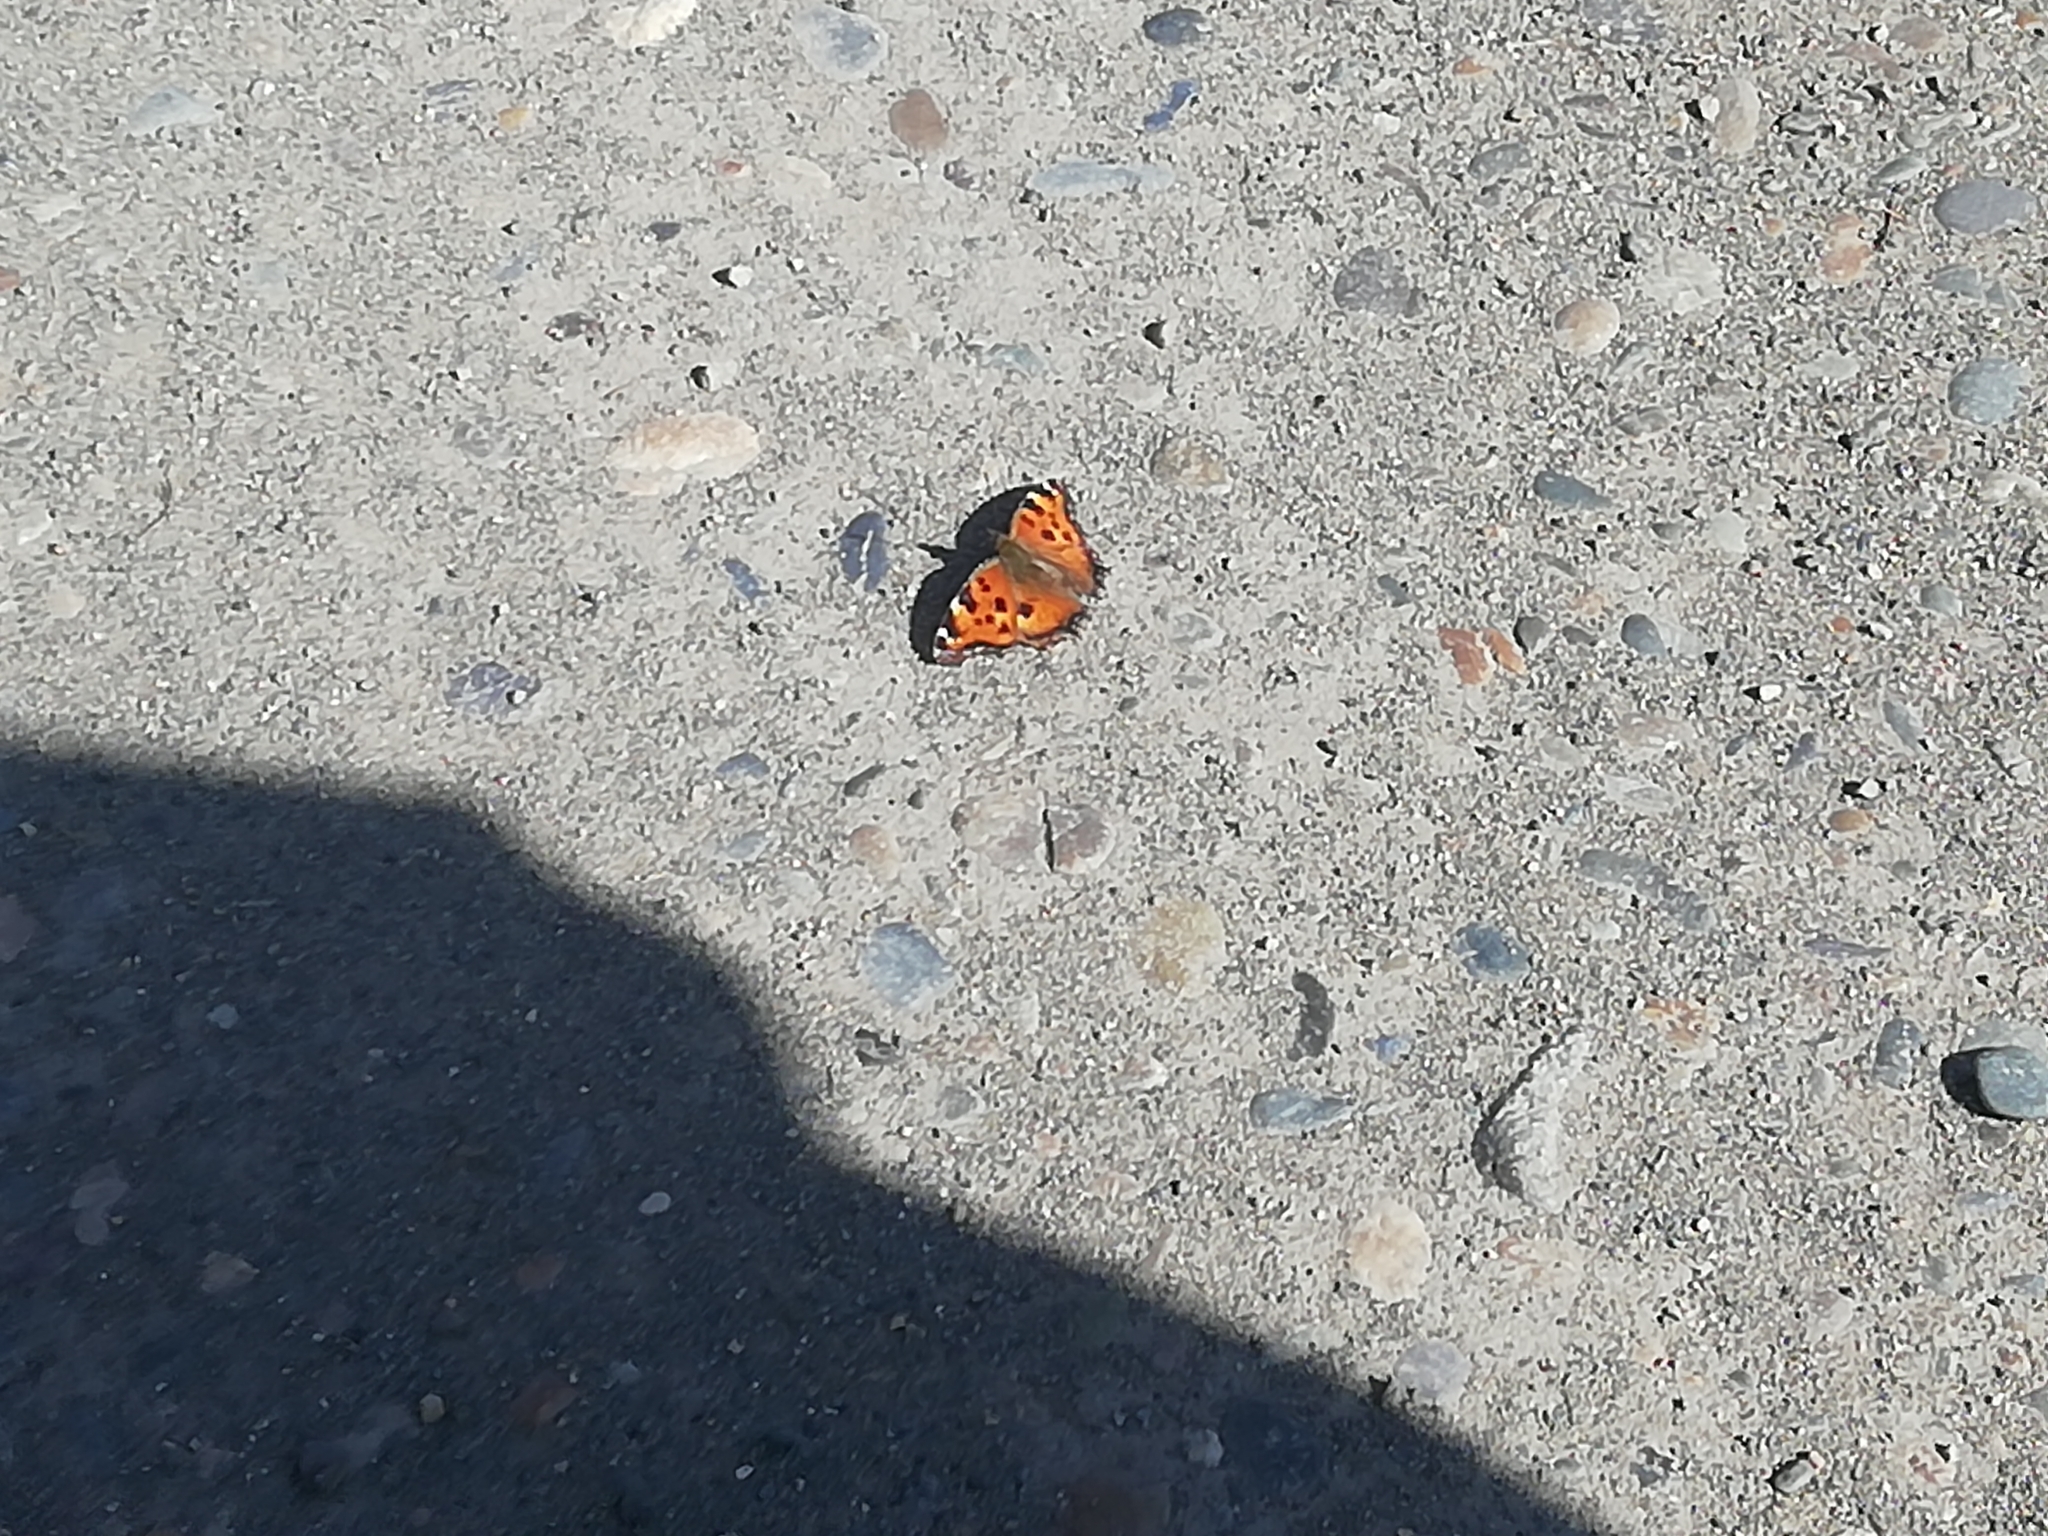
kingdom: Animalia
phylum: Arthropoda
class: Insecta
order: Lepidoptera
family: Nymphalidae
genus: Nymphalis
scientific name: Nymphalis xanthomelas
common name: Scarce tortoiseshell
